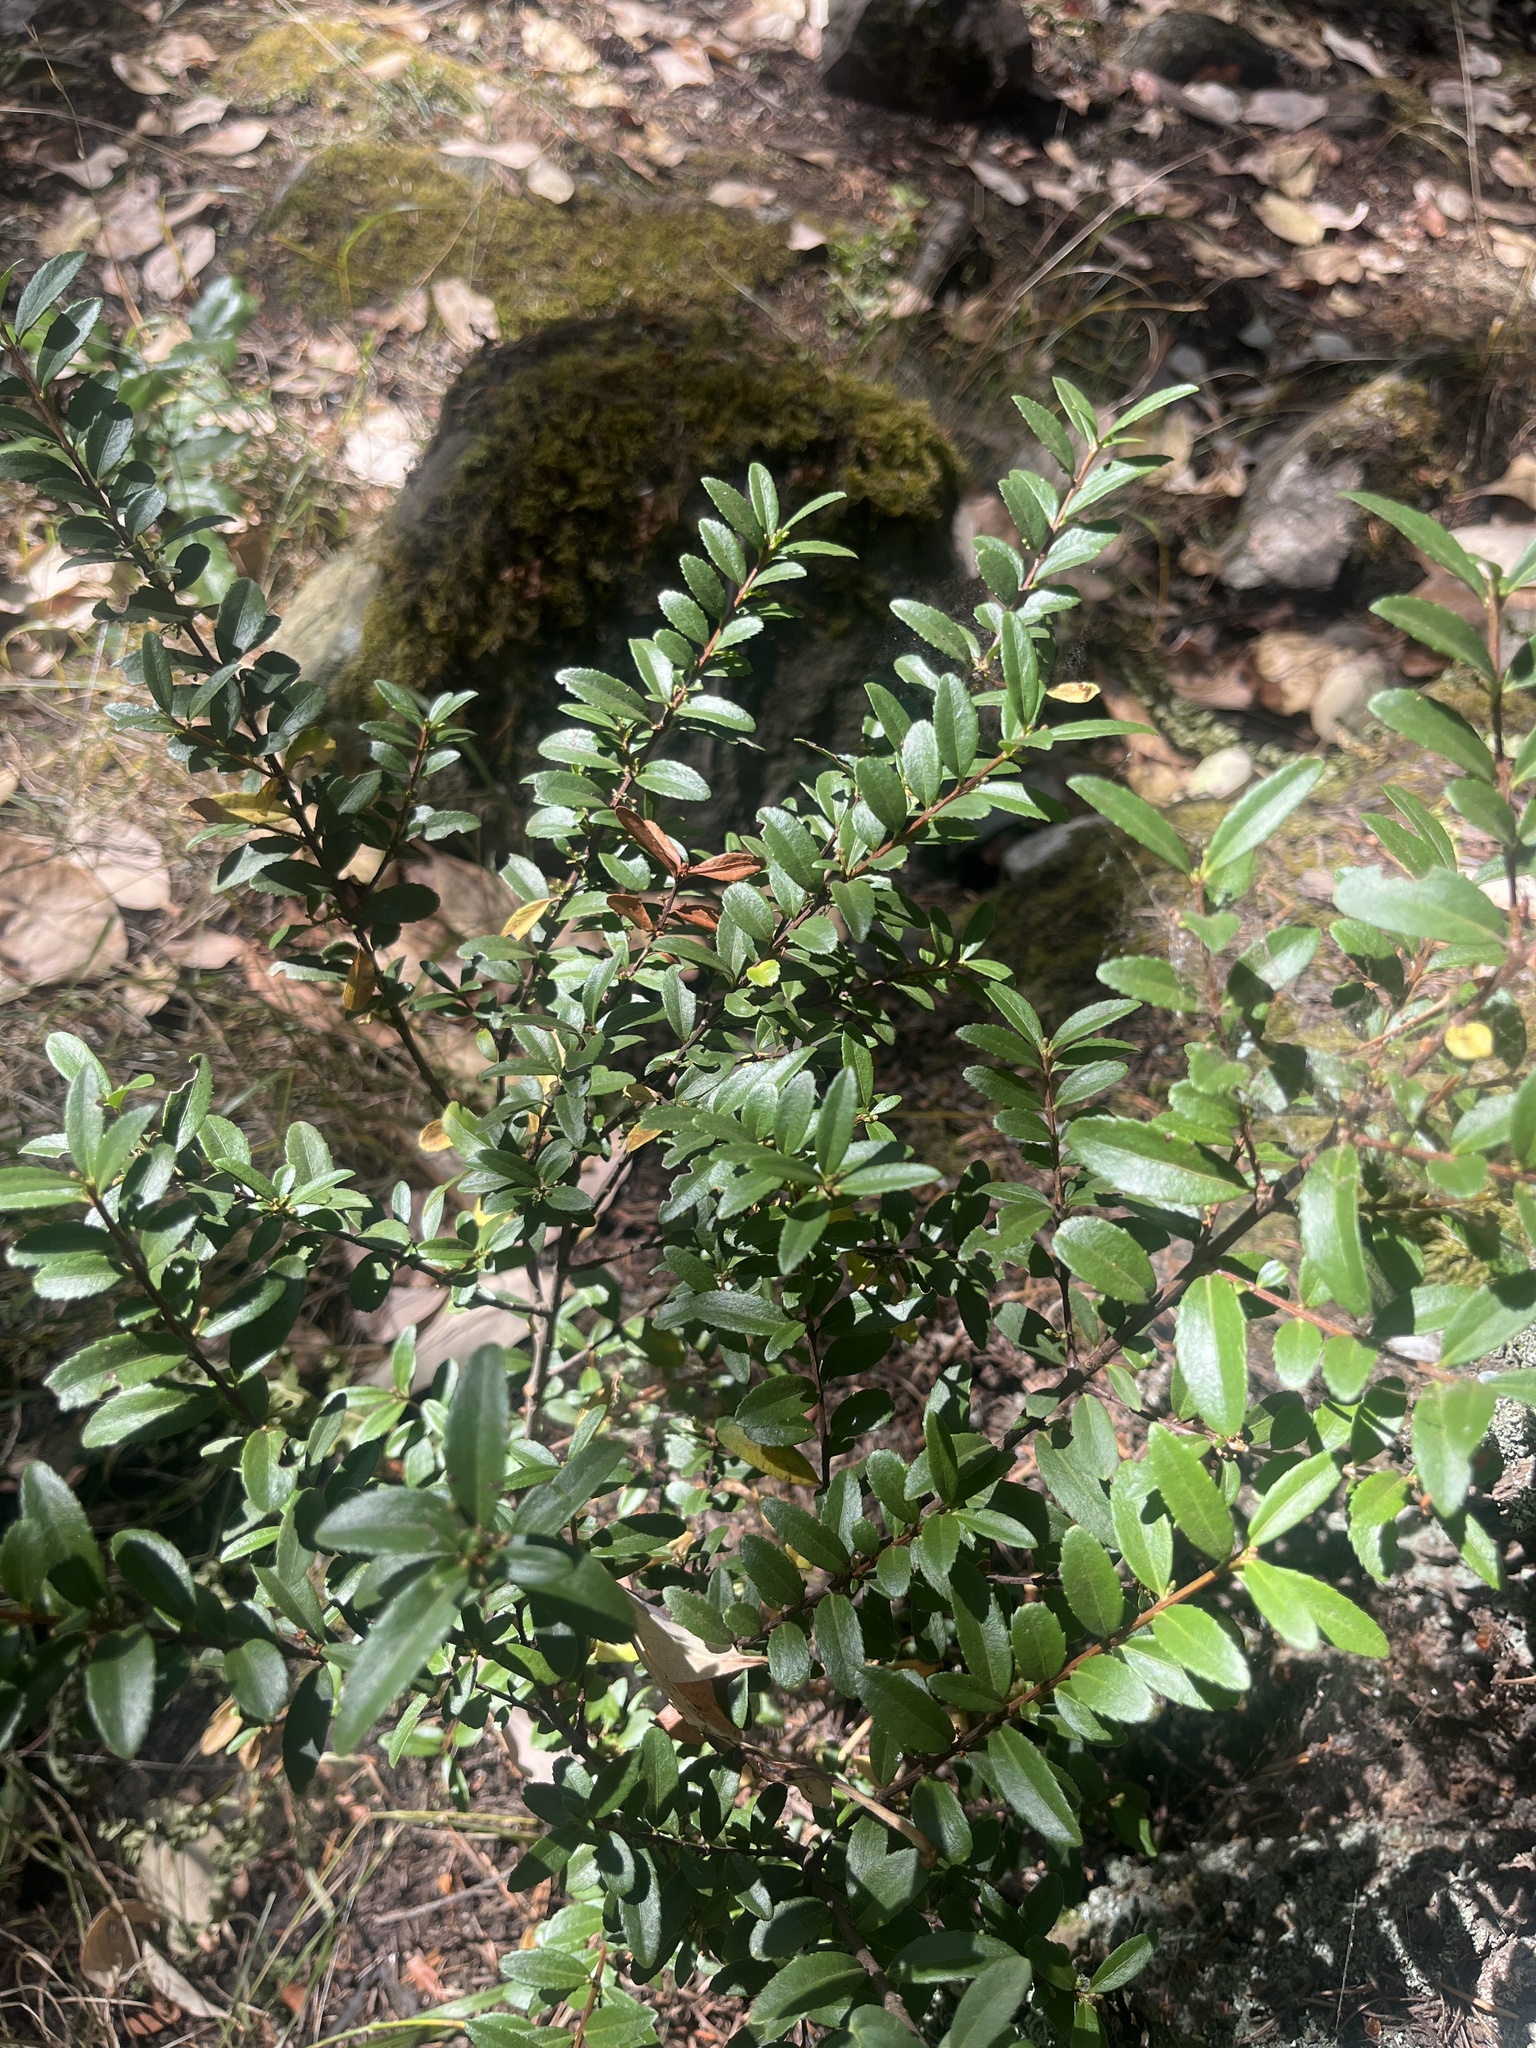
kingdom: Plantae
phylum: Tracheophyta
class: Magnoliopsida
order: Celastrales
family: Celastraceae
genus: Paxistima
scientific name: Paxistima myrsinites
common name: Mountain-lover
